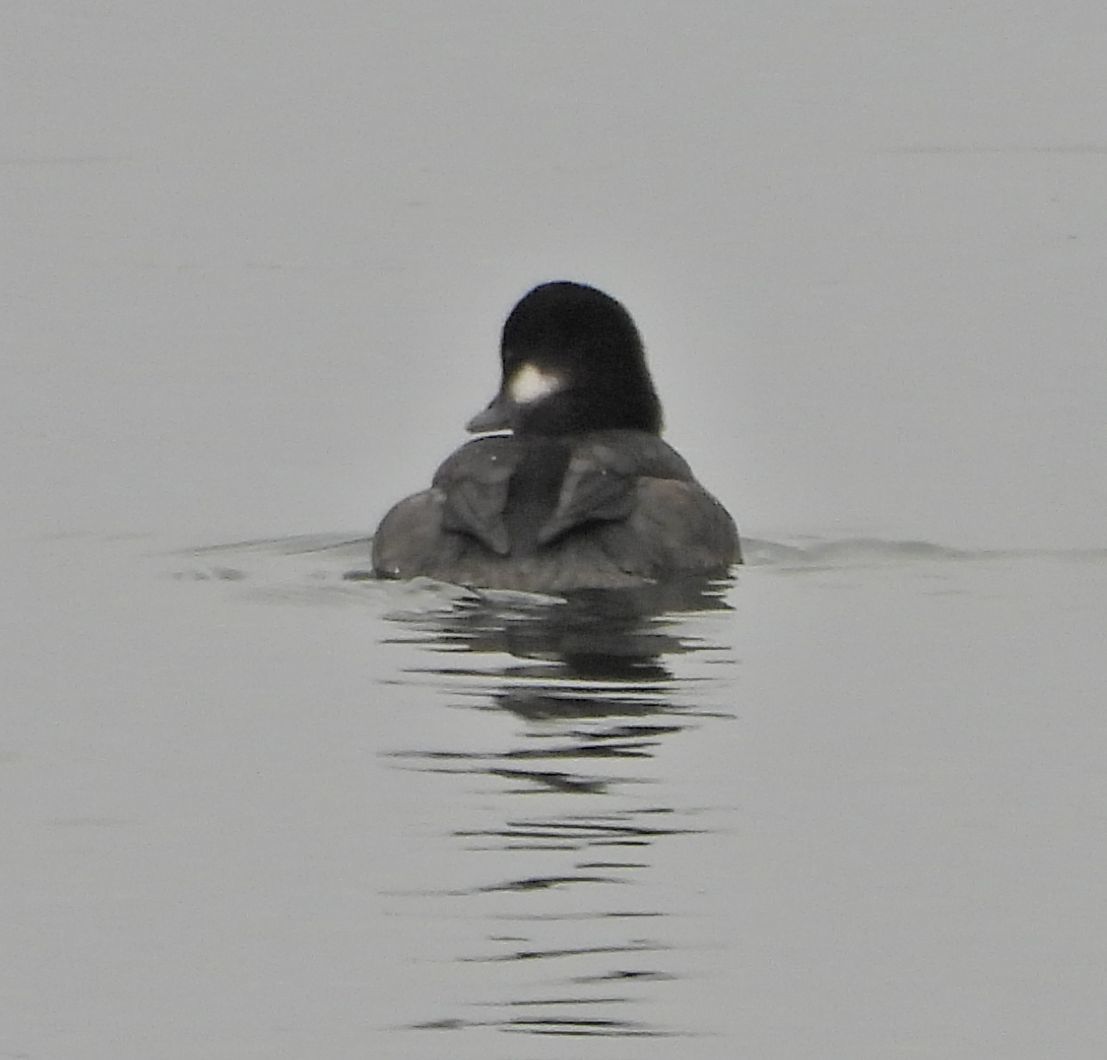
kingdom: Animalia
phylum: Chordata
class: Aves
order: Anseriformes
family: Anatidae
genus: Bucephala
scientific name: Bucephala albeola
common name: Bufflehead
